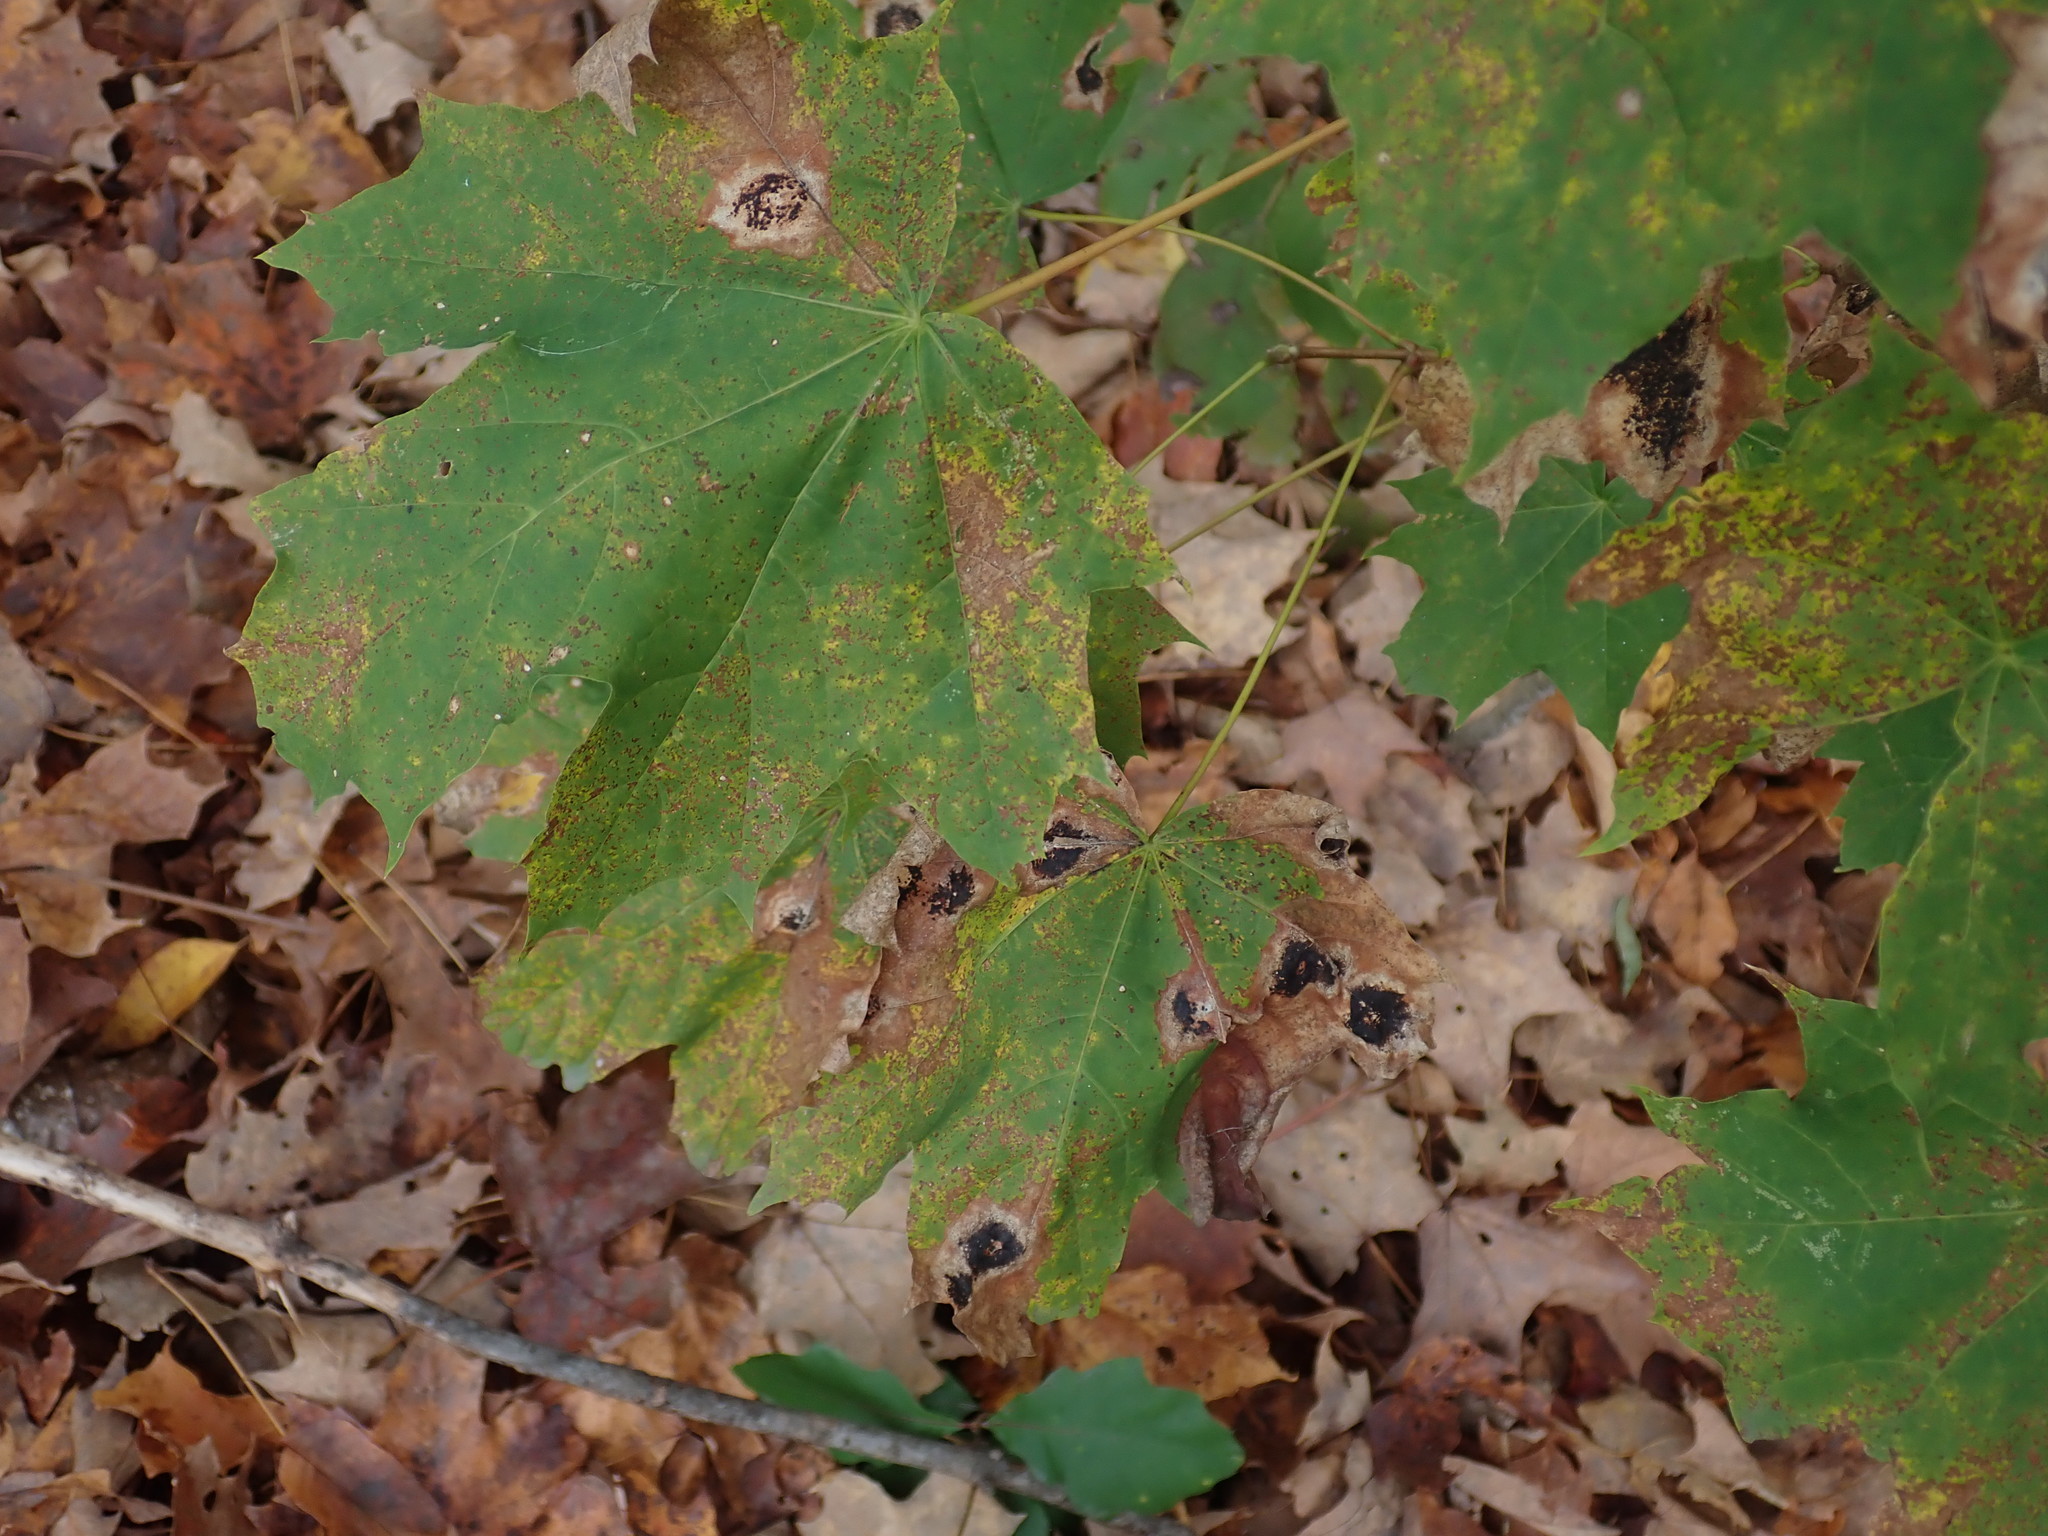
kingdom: Fungi
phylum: Ascomycota
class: Leotiomycetes
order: Rhytismatales
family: Rhytismataceae
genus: Rhytisma
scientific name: Rhytisma acerinum
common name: European tar spot
